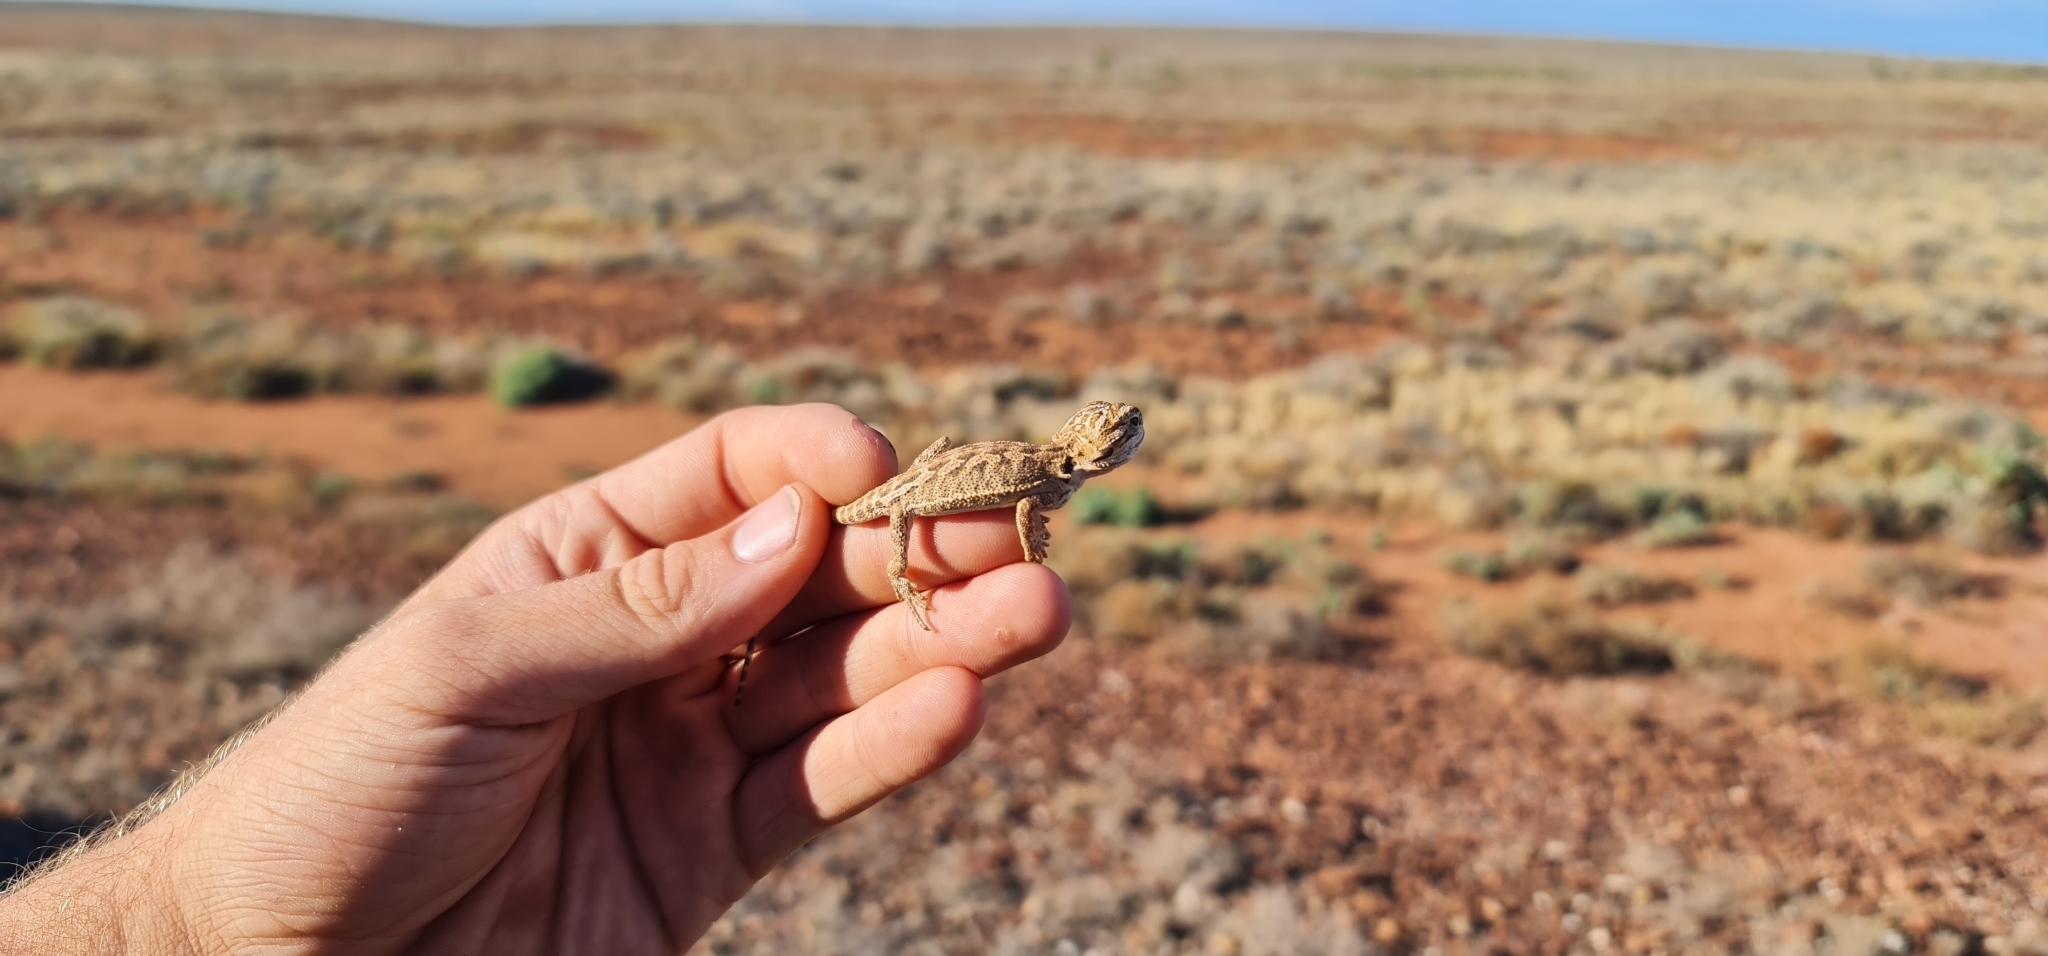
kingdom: Animalia
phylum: Chordata
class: Squamata
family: Agamidae
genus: Pogona
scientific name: Pogona vitticeps
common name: Central bearded dragon
